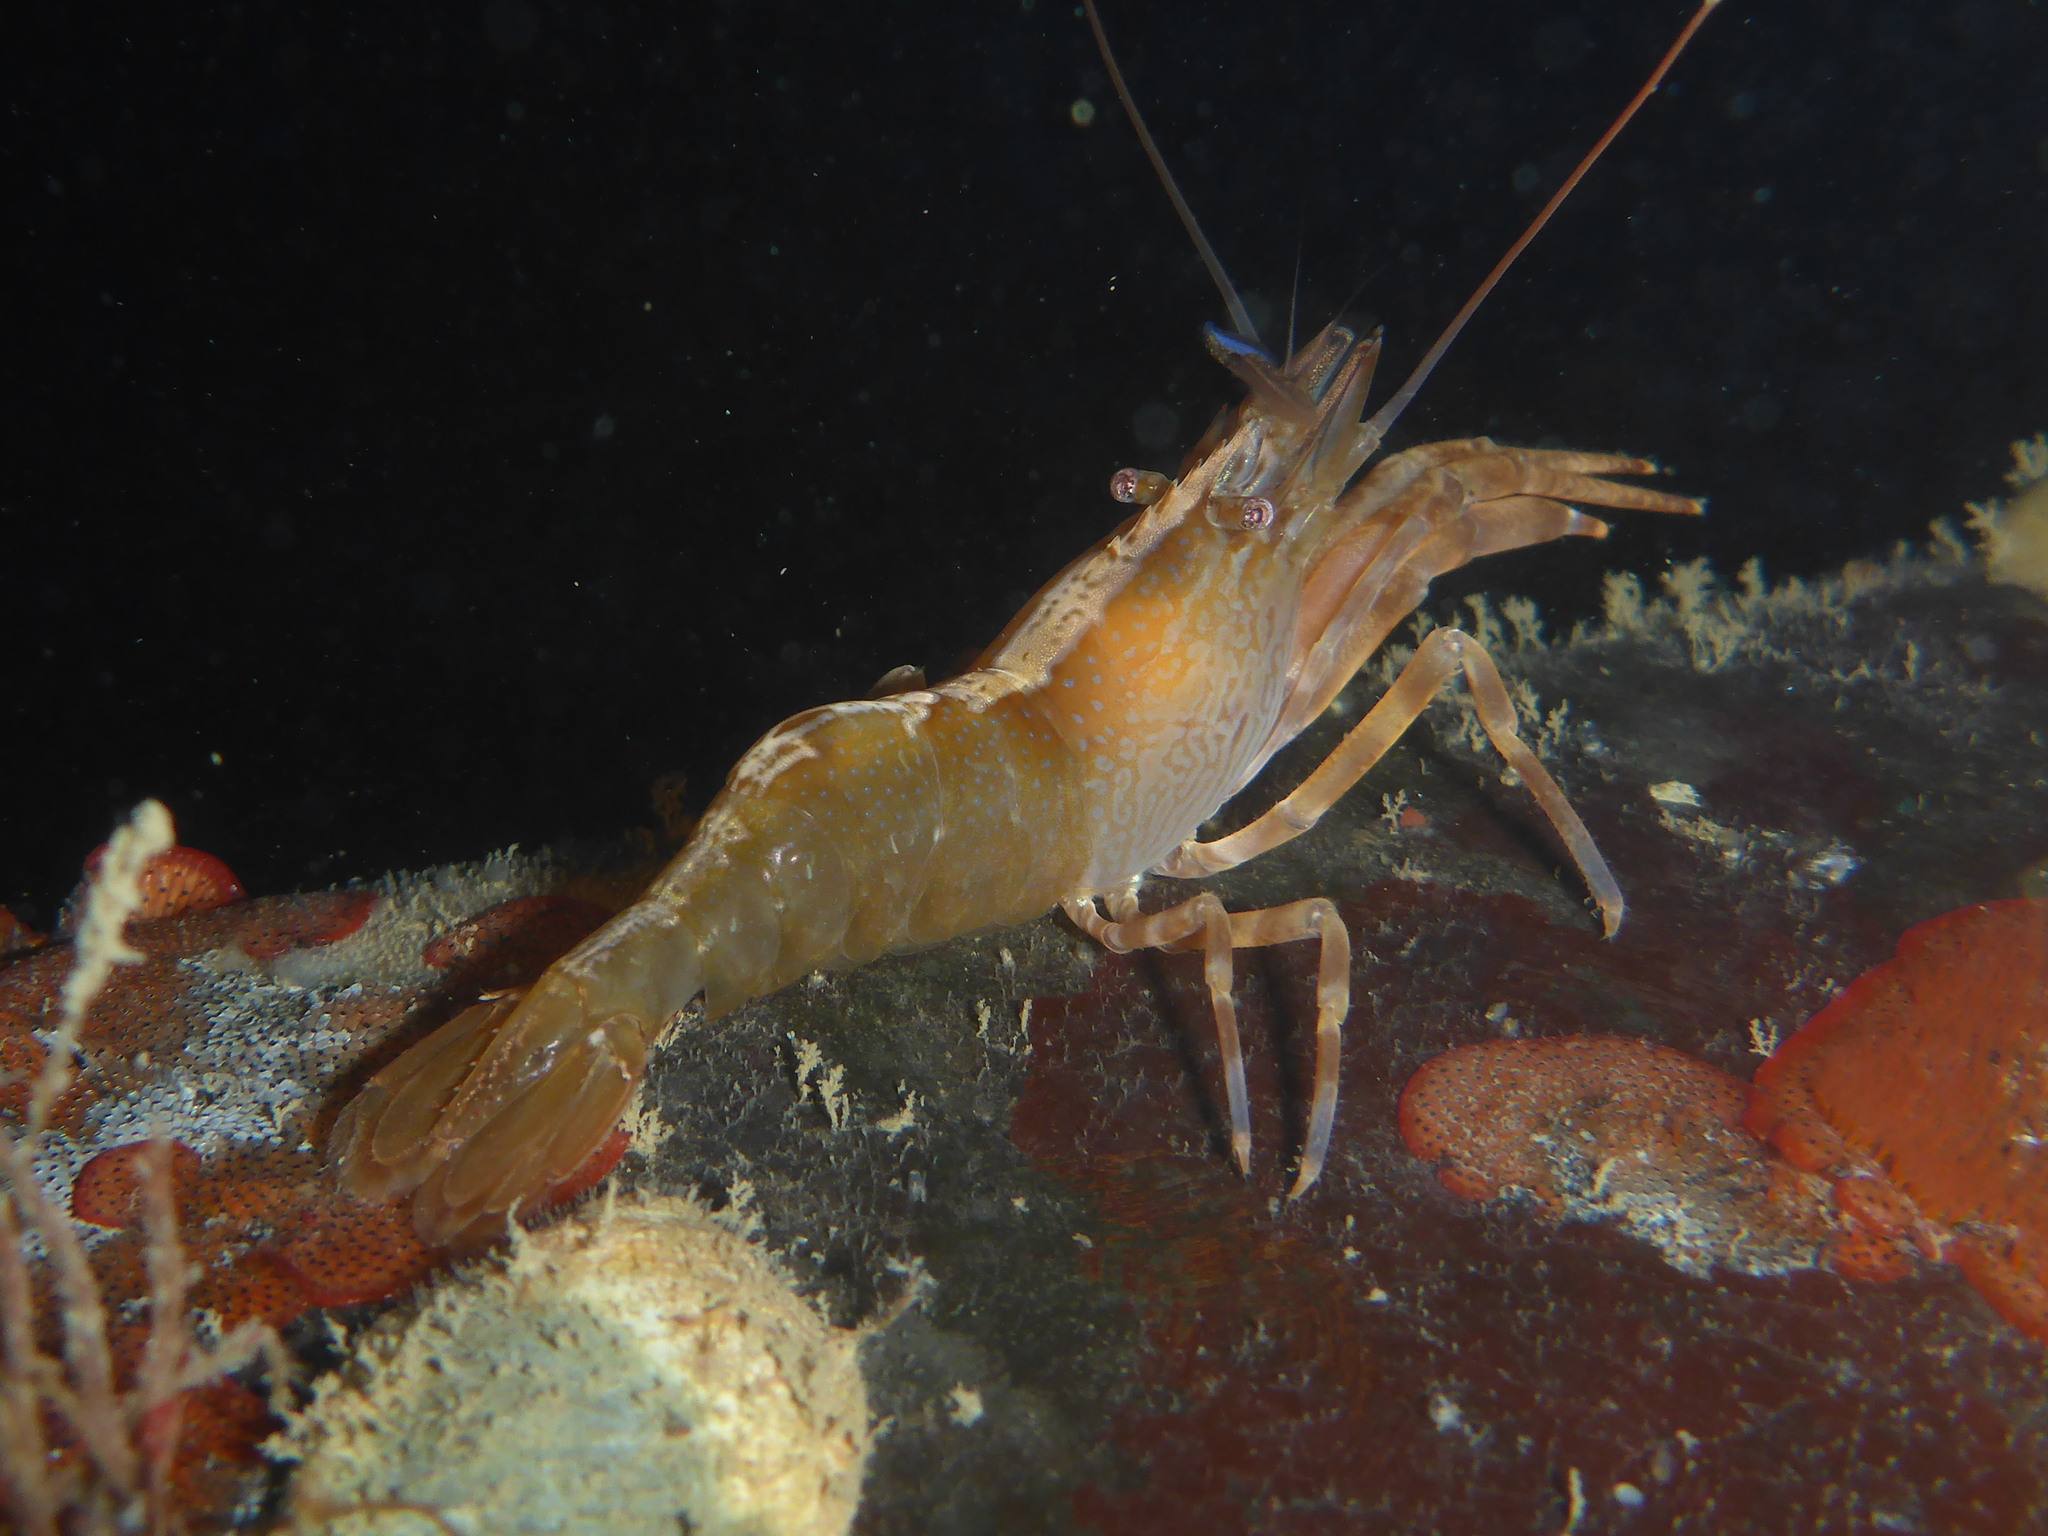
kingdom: Animalia
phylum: Arthropoda
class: Malacostraca
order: Decapoda
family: Thoridae
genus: Heptacarpus
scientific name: Heptacarpus palpator
